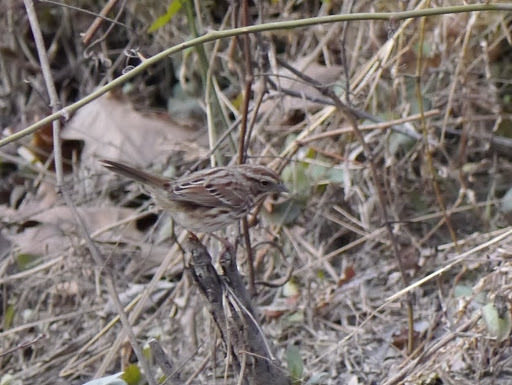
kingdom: Animalia
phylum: Chordata
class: Aves
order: Passeriformes
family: Passerellidae
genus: Melospiza
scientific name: Melospiza melodia
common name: Song sparrow
